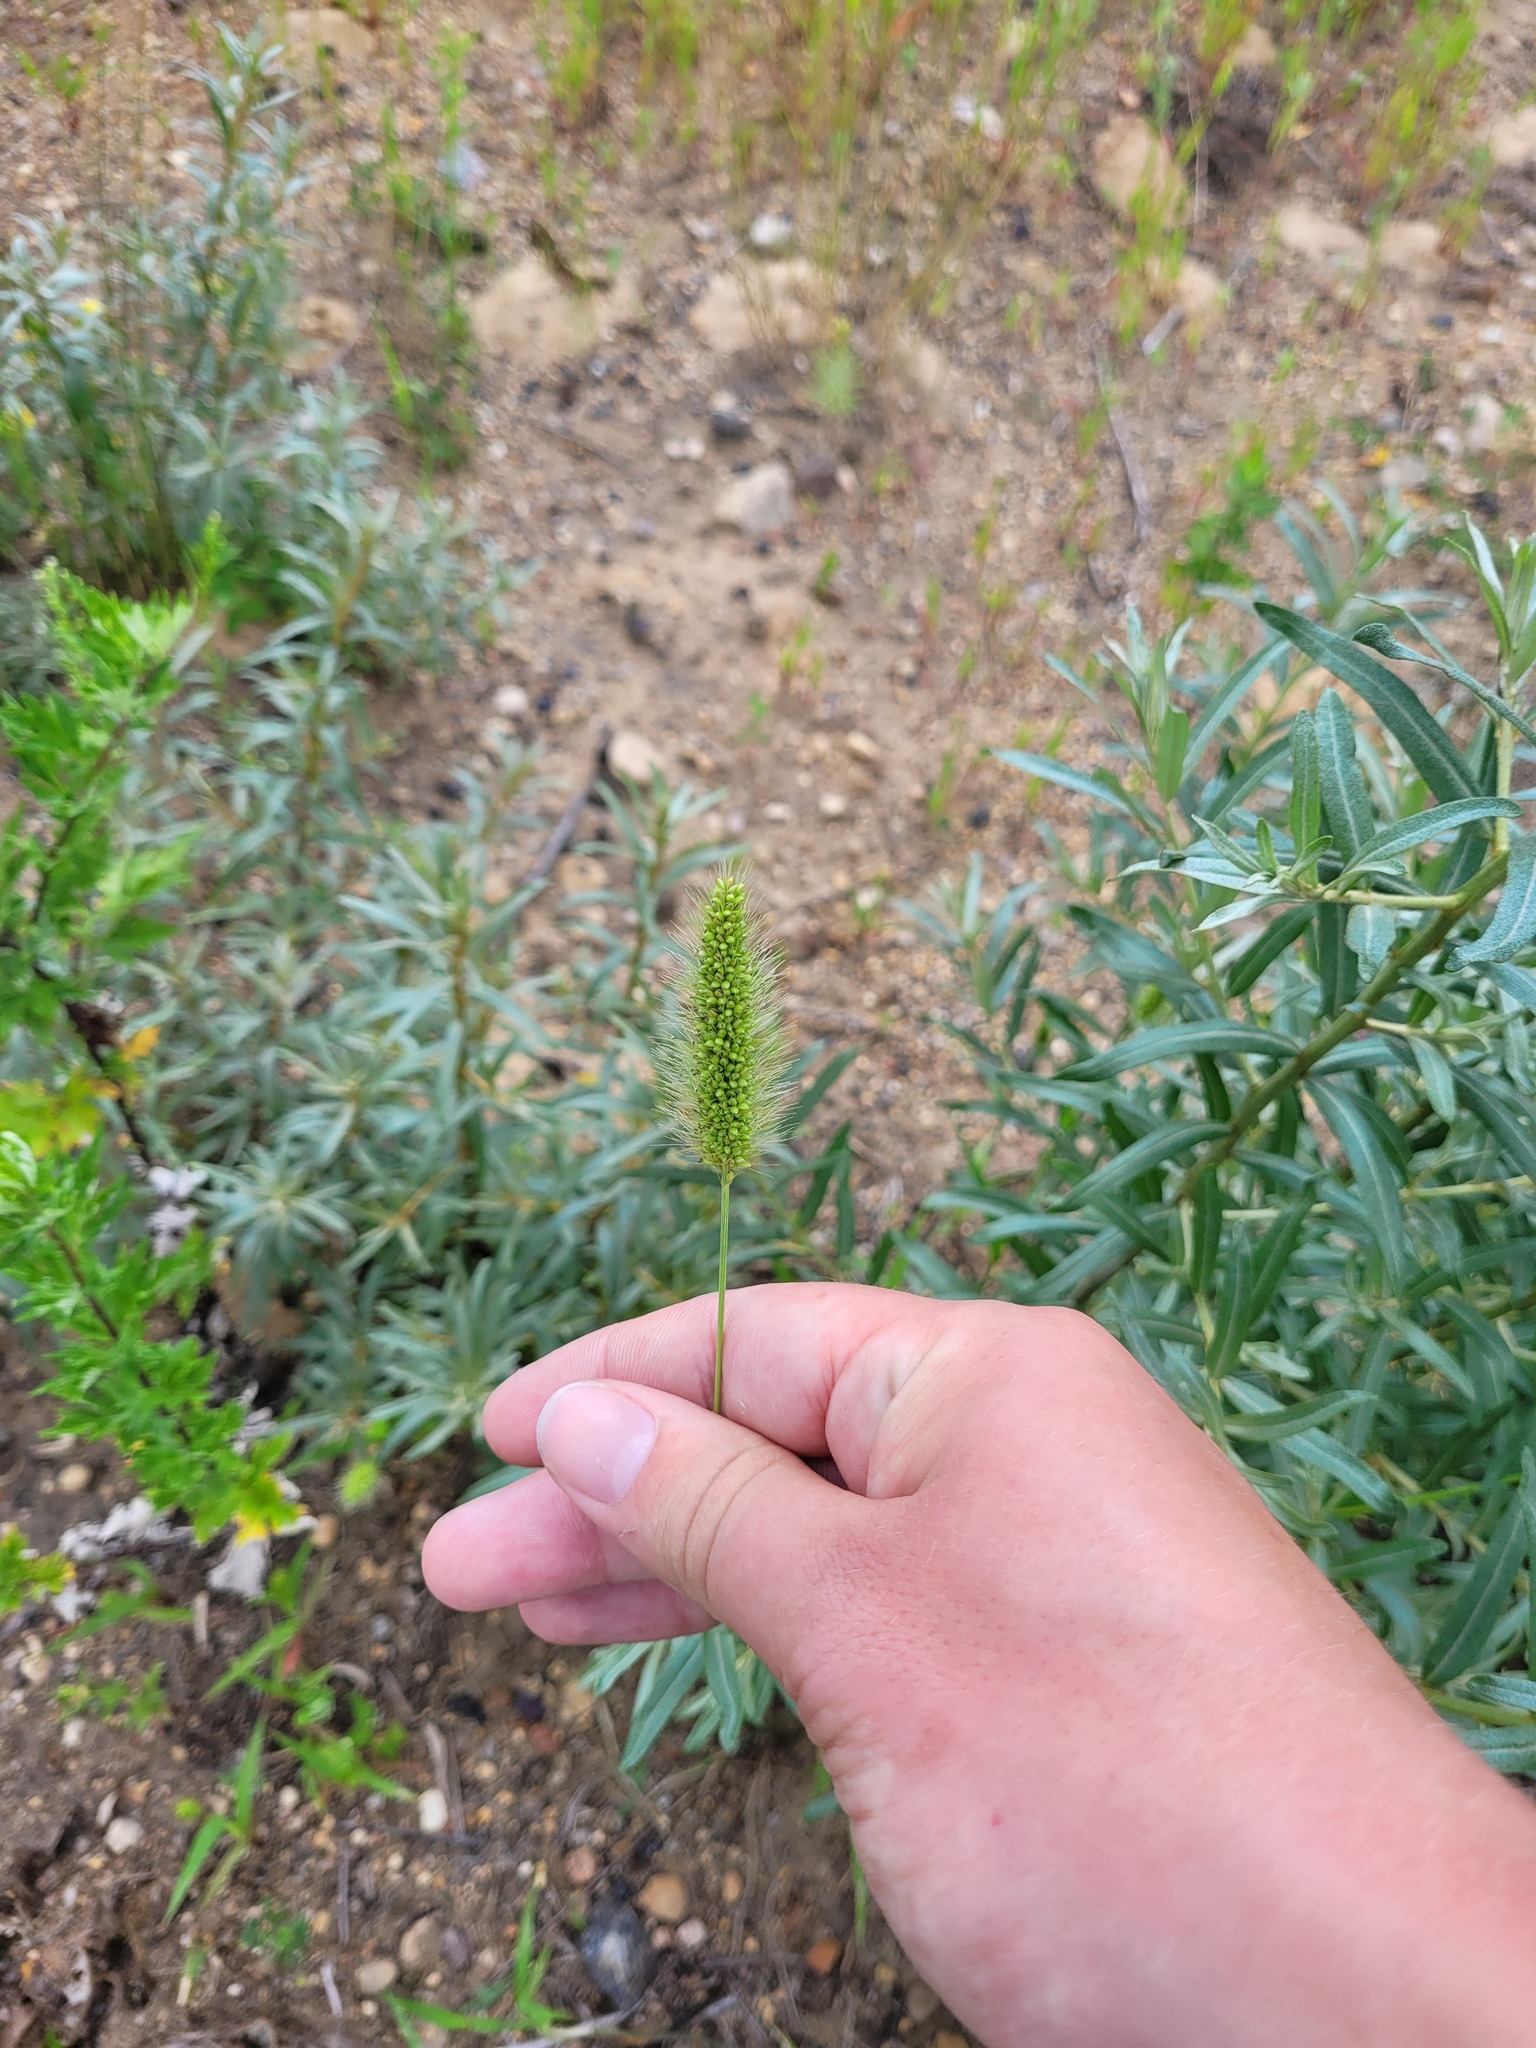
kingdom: Plantae
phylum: Tracheophyta
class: Liliopsida
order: Poales
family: Poaceae
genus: Setaria
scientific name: Setaria viridis
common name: Green bristlegrass
